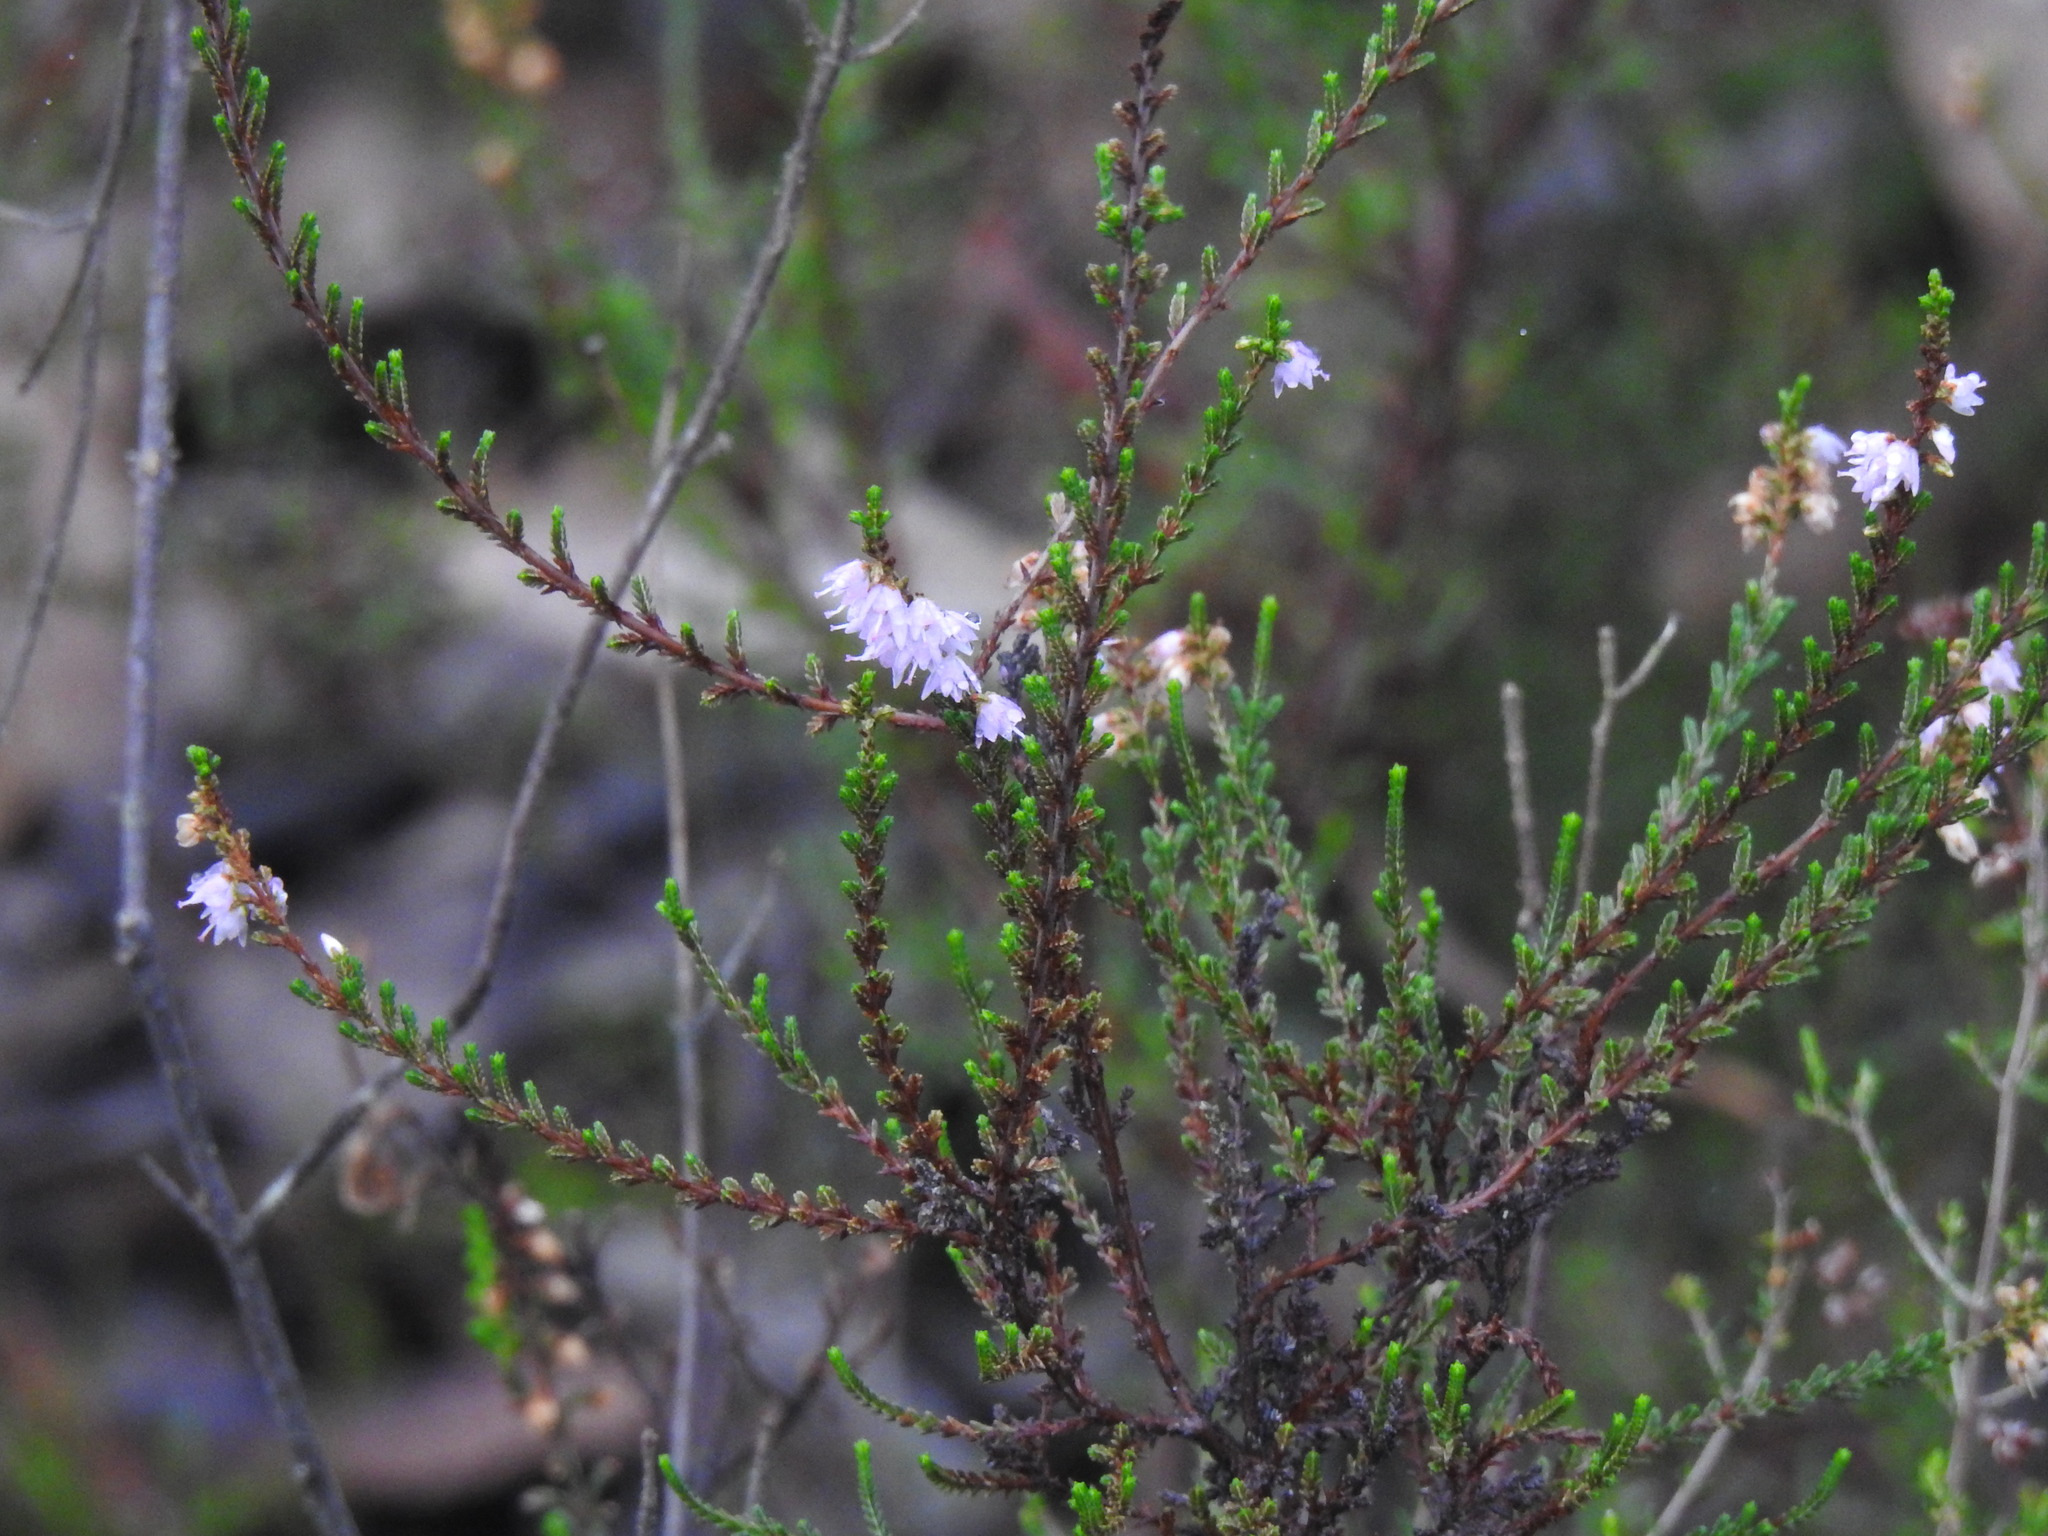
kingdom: Plantae
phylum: Tracheophyta
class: Magnoliopsida
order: Ericales
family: Ericaceae
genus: Calluna
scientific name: Calluna vulgaris
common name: Heather
